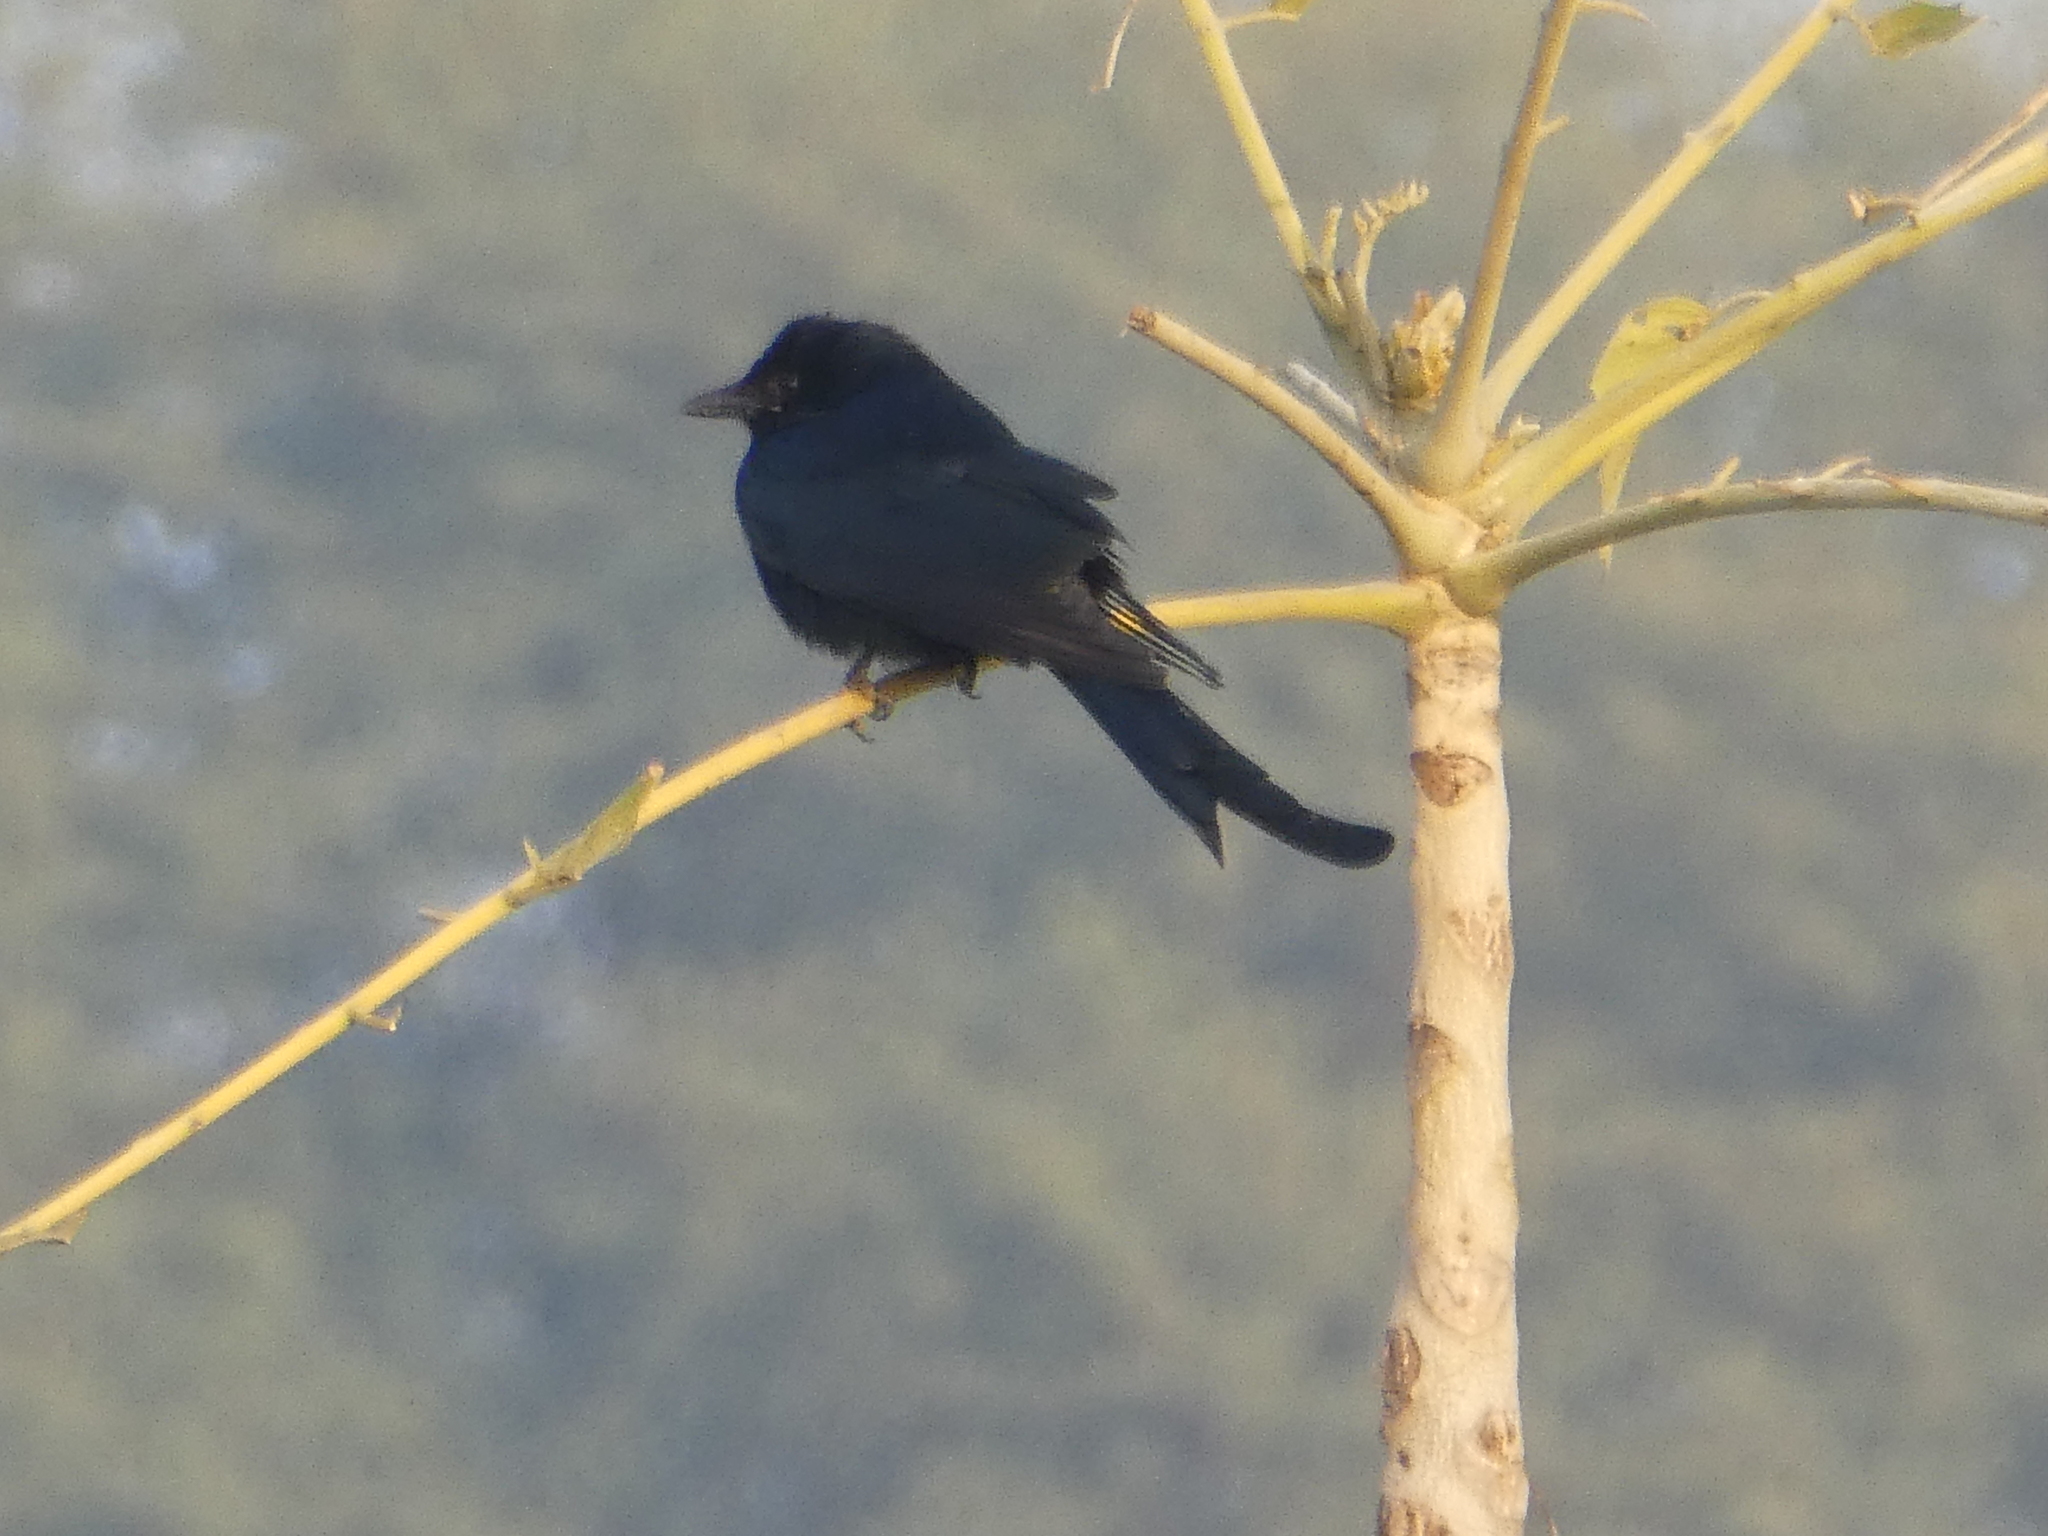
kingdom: Animalia
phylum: Chordata
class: Aves
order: Passeriformes
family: Dicruridae
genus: Dicrurus
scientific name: Dicrurus macrocercus
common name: Black drongo
